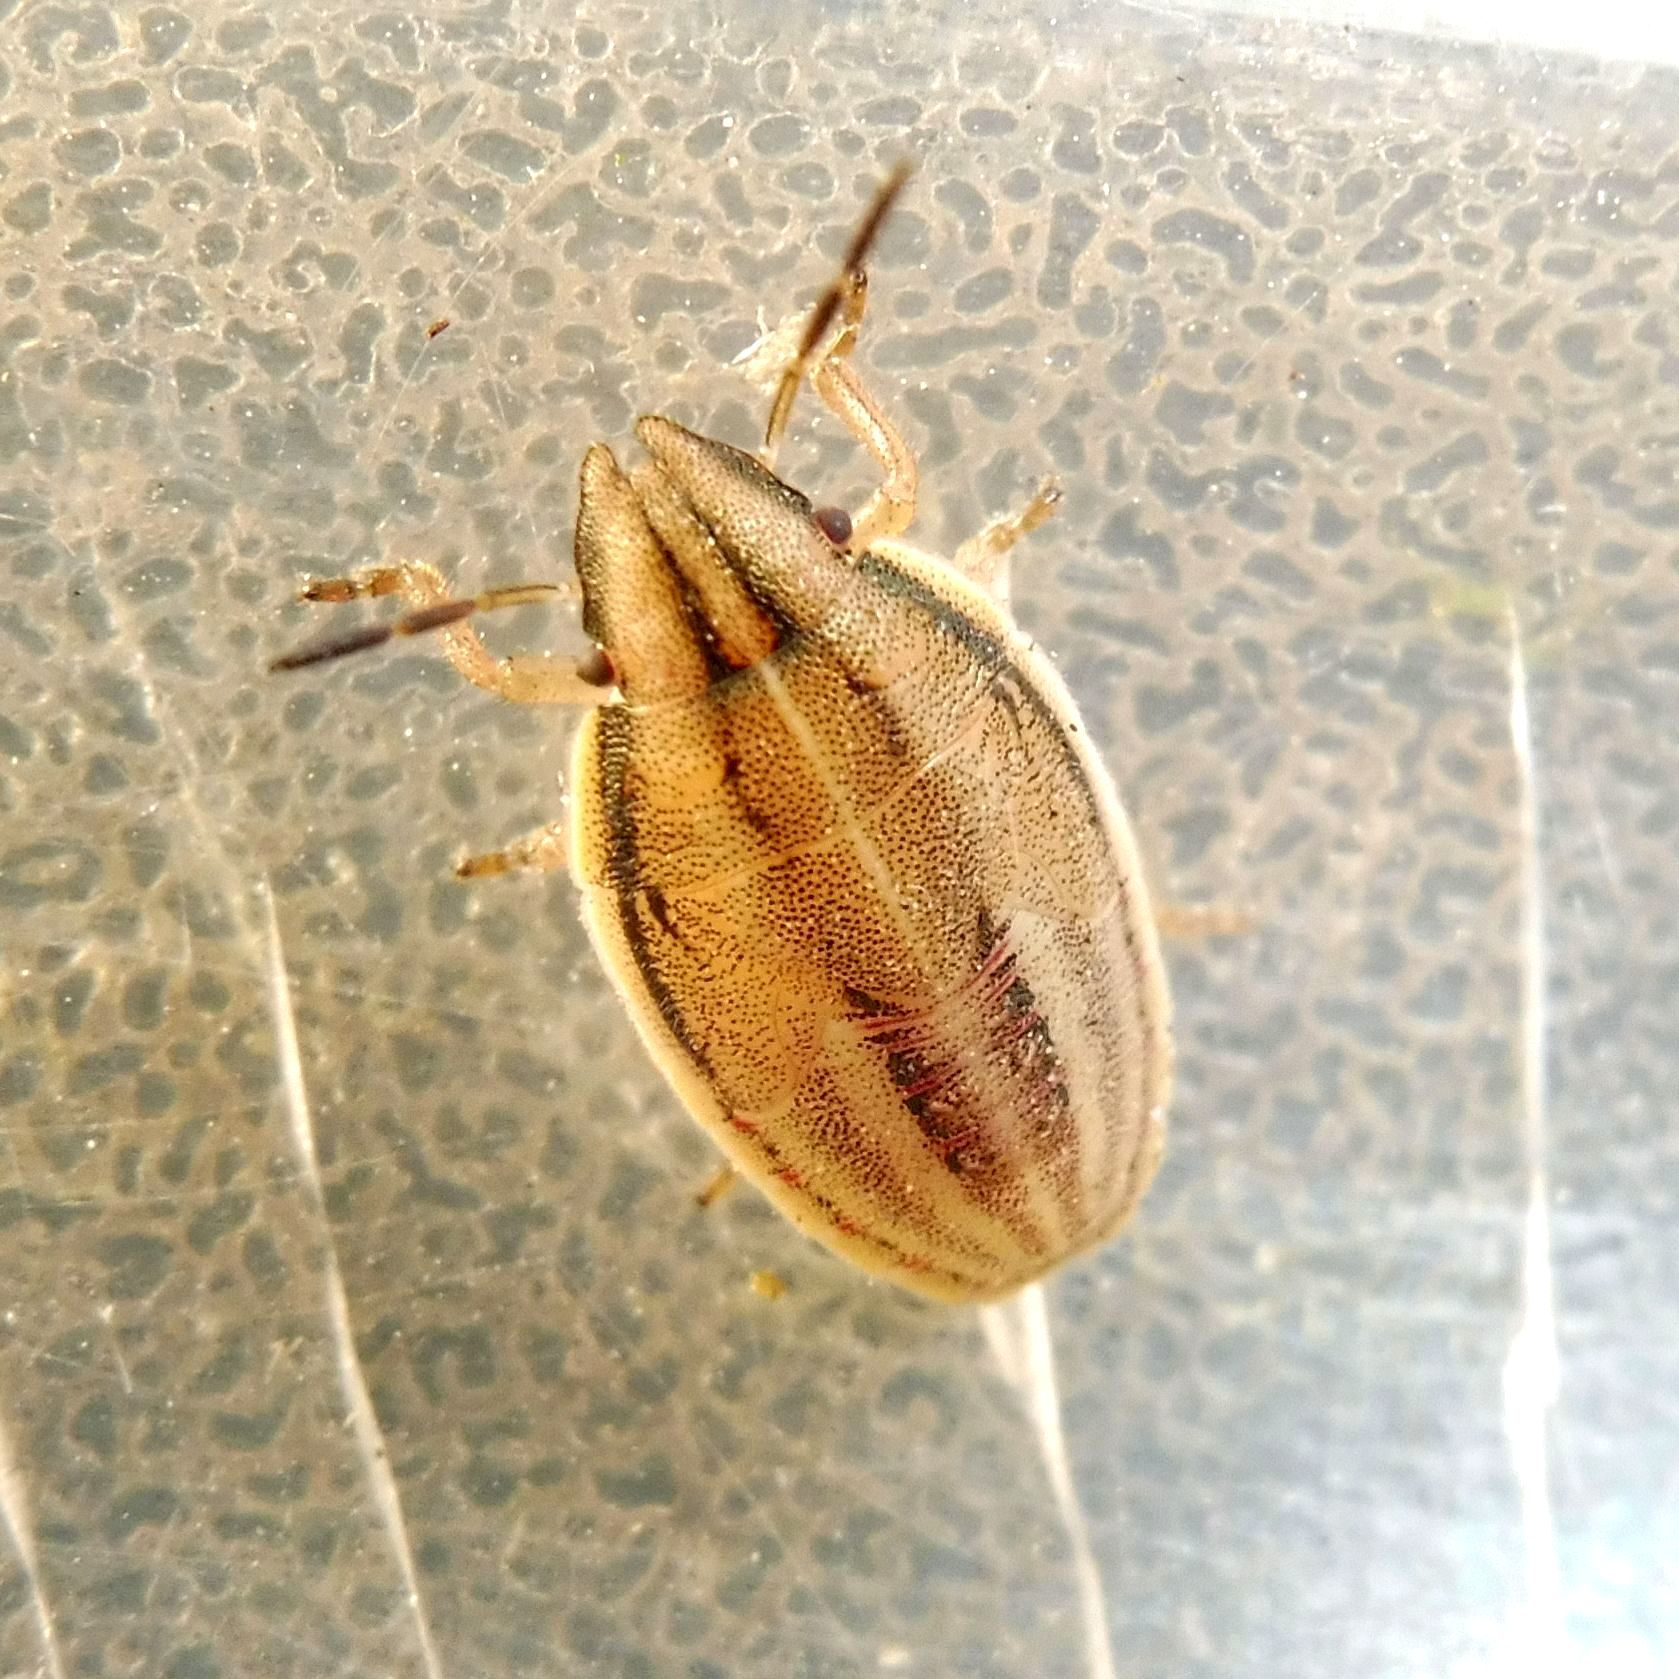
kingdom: Animalia
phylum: Arthropoda
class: Insecta
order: Hemiptera
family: Pentatomidae
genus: Aelia
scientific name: Aelia acuminata
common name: Bishop's mitre
